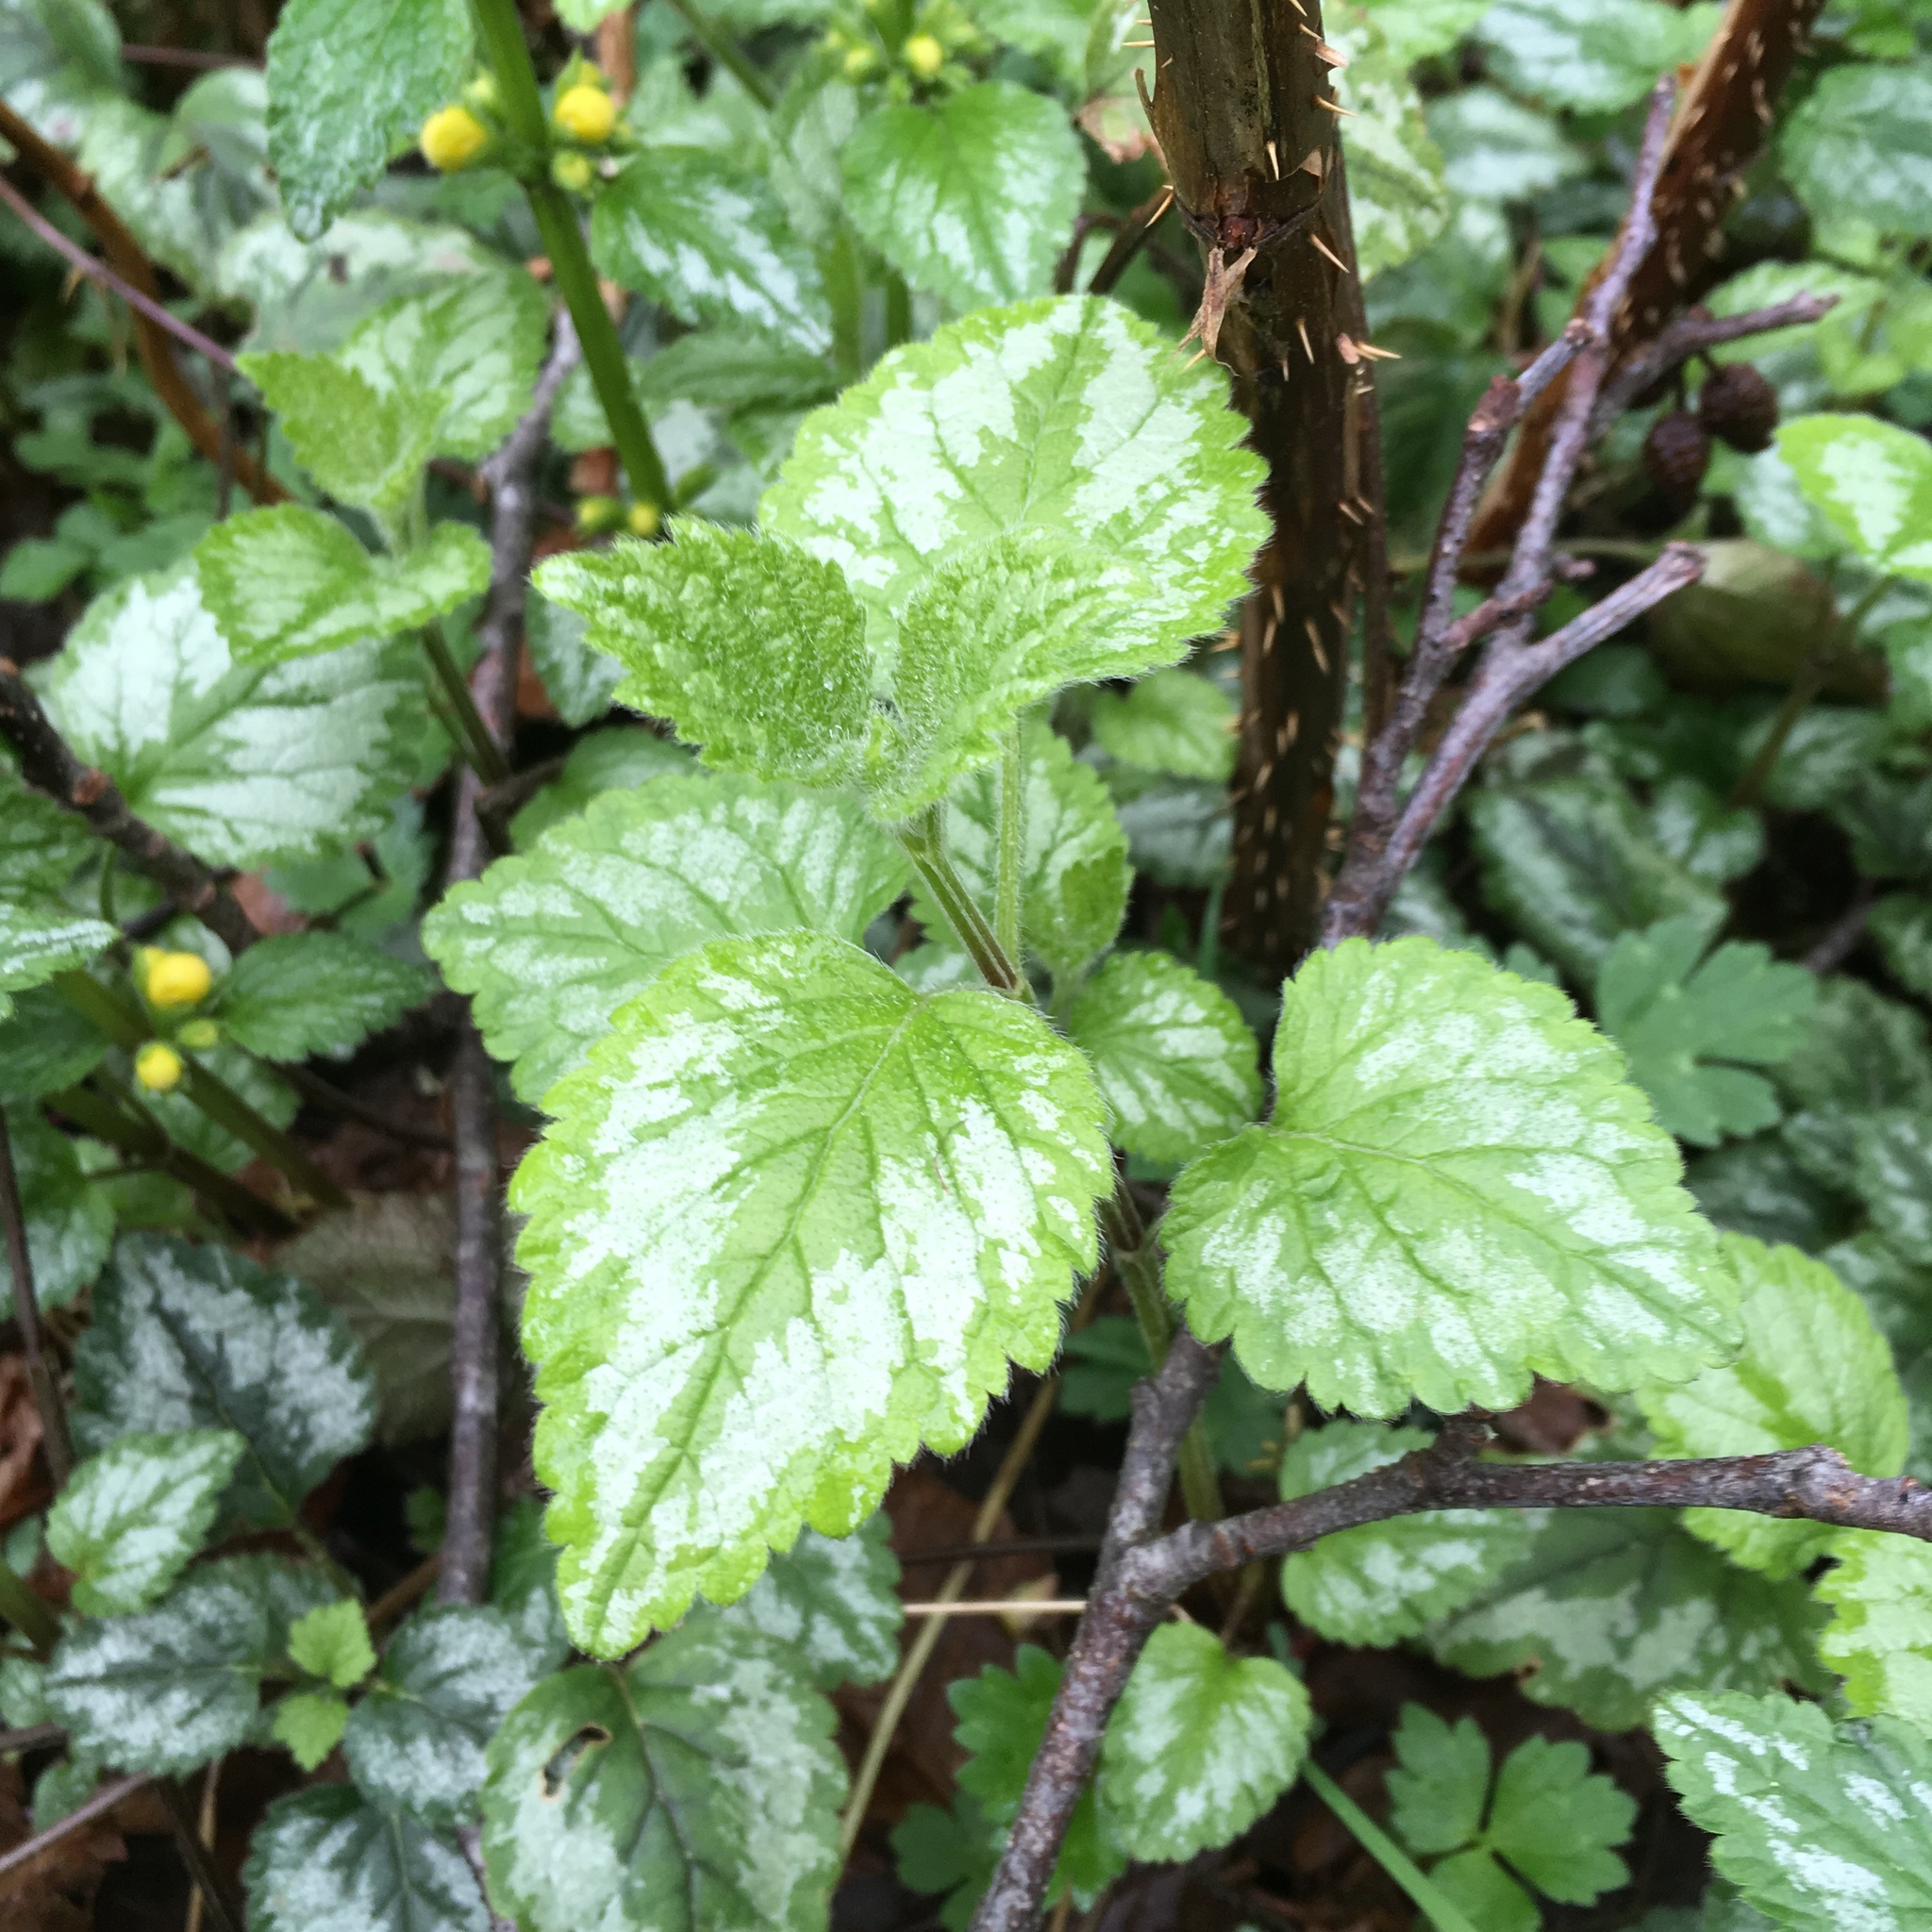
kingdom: Plantae
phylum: Tracheophyta
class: Magnoliopsida
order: Lamiales
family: Lamiaceae
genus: Lamium
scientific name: Lamium galeobdolon
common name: Yellow archangel
